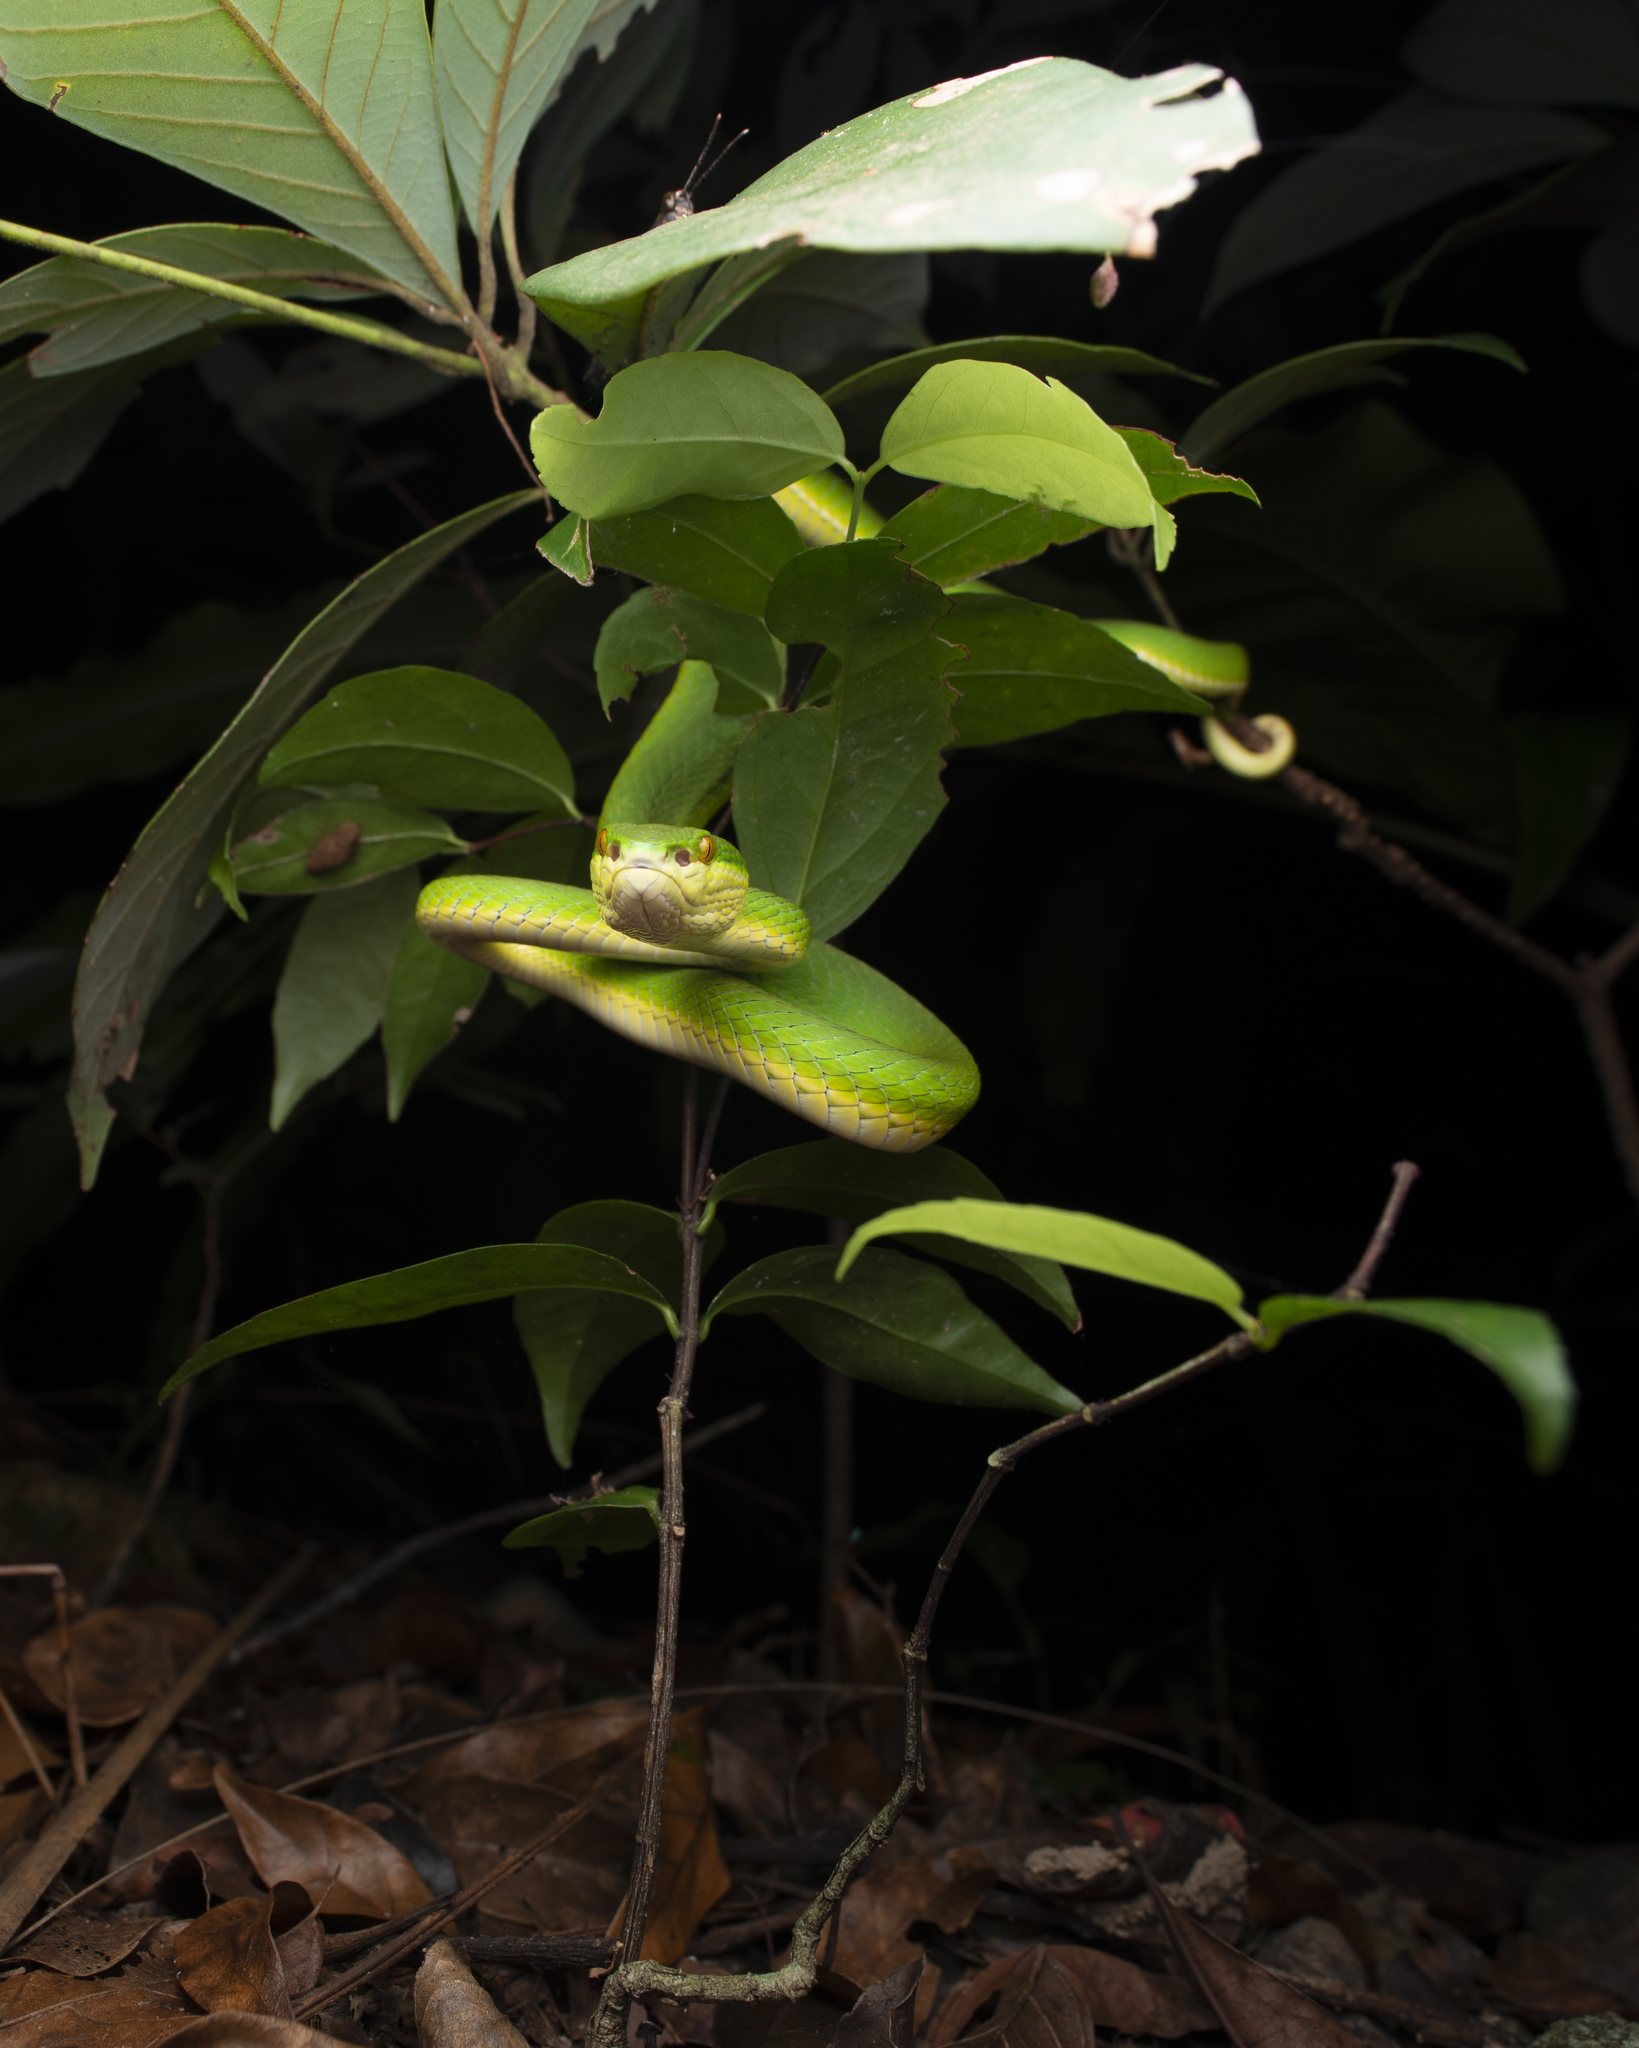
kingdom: Animalia
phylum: Chordata
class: Squamata
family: Viperidae
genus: Trimeresurus
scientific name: Trimeresurus albolabris
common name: White-lipped pitviper
